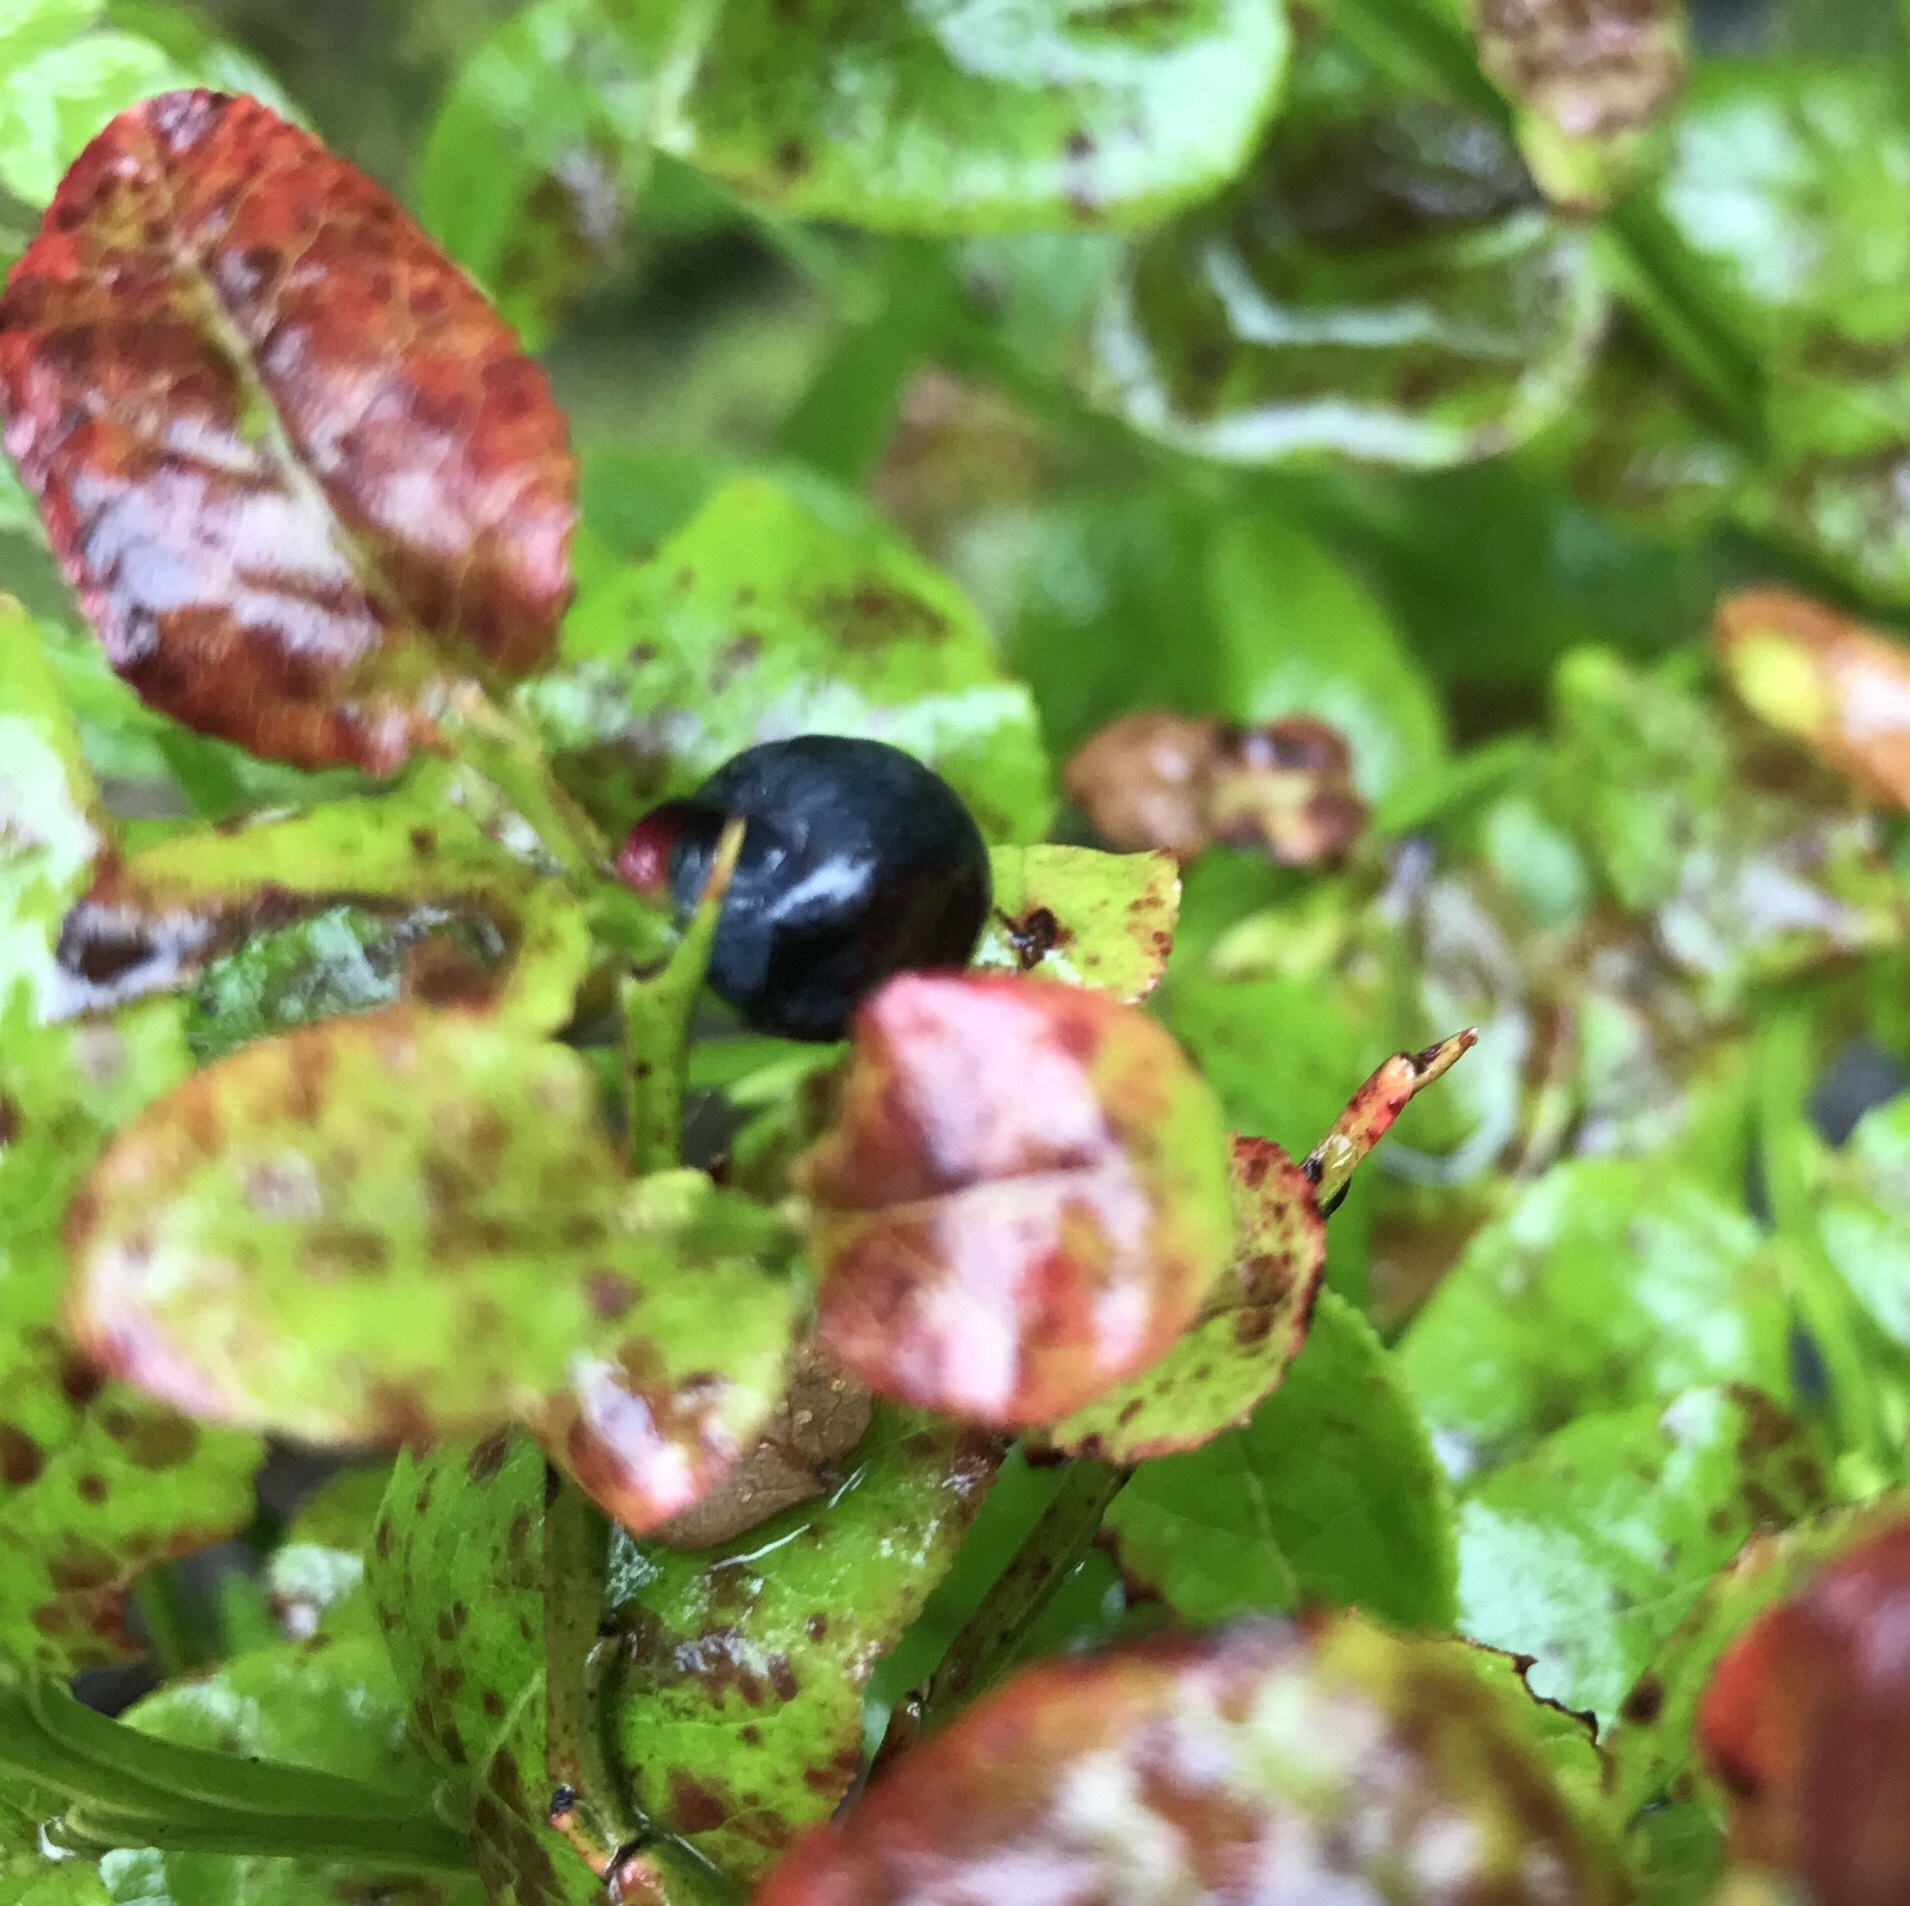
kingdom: Plantae
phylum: Tracheophyta
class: Magnoliopsida
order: Ericales
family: Ericaceae
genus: Vaccinium
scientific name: Vaccinium myrtillus
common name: Bilberry
